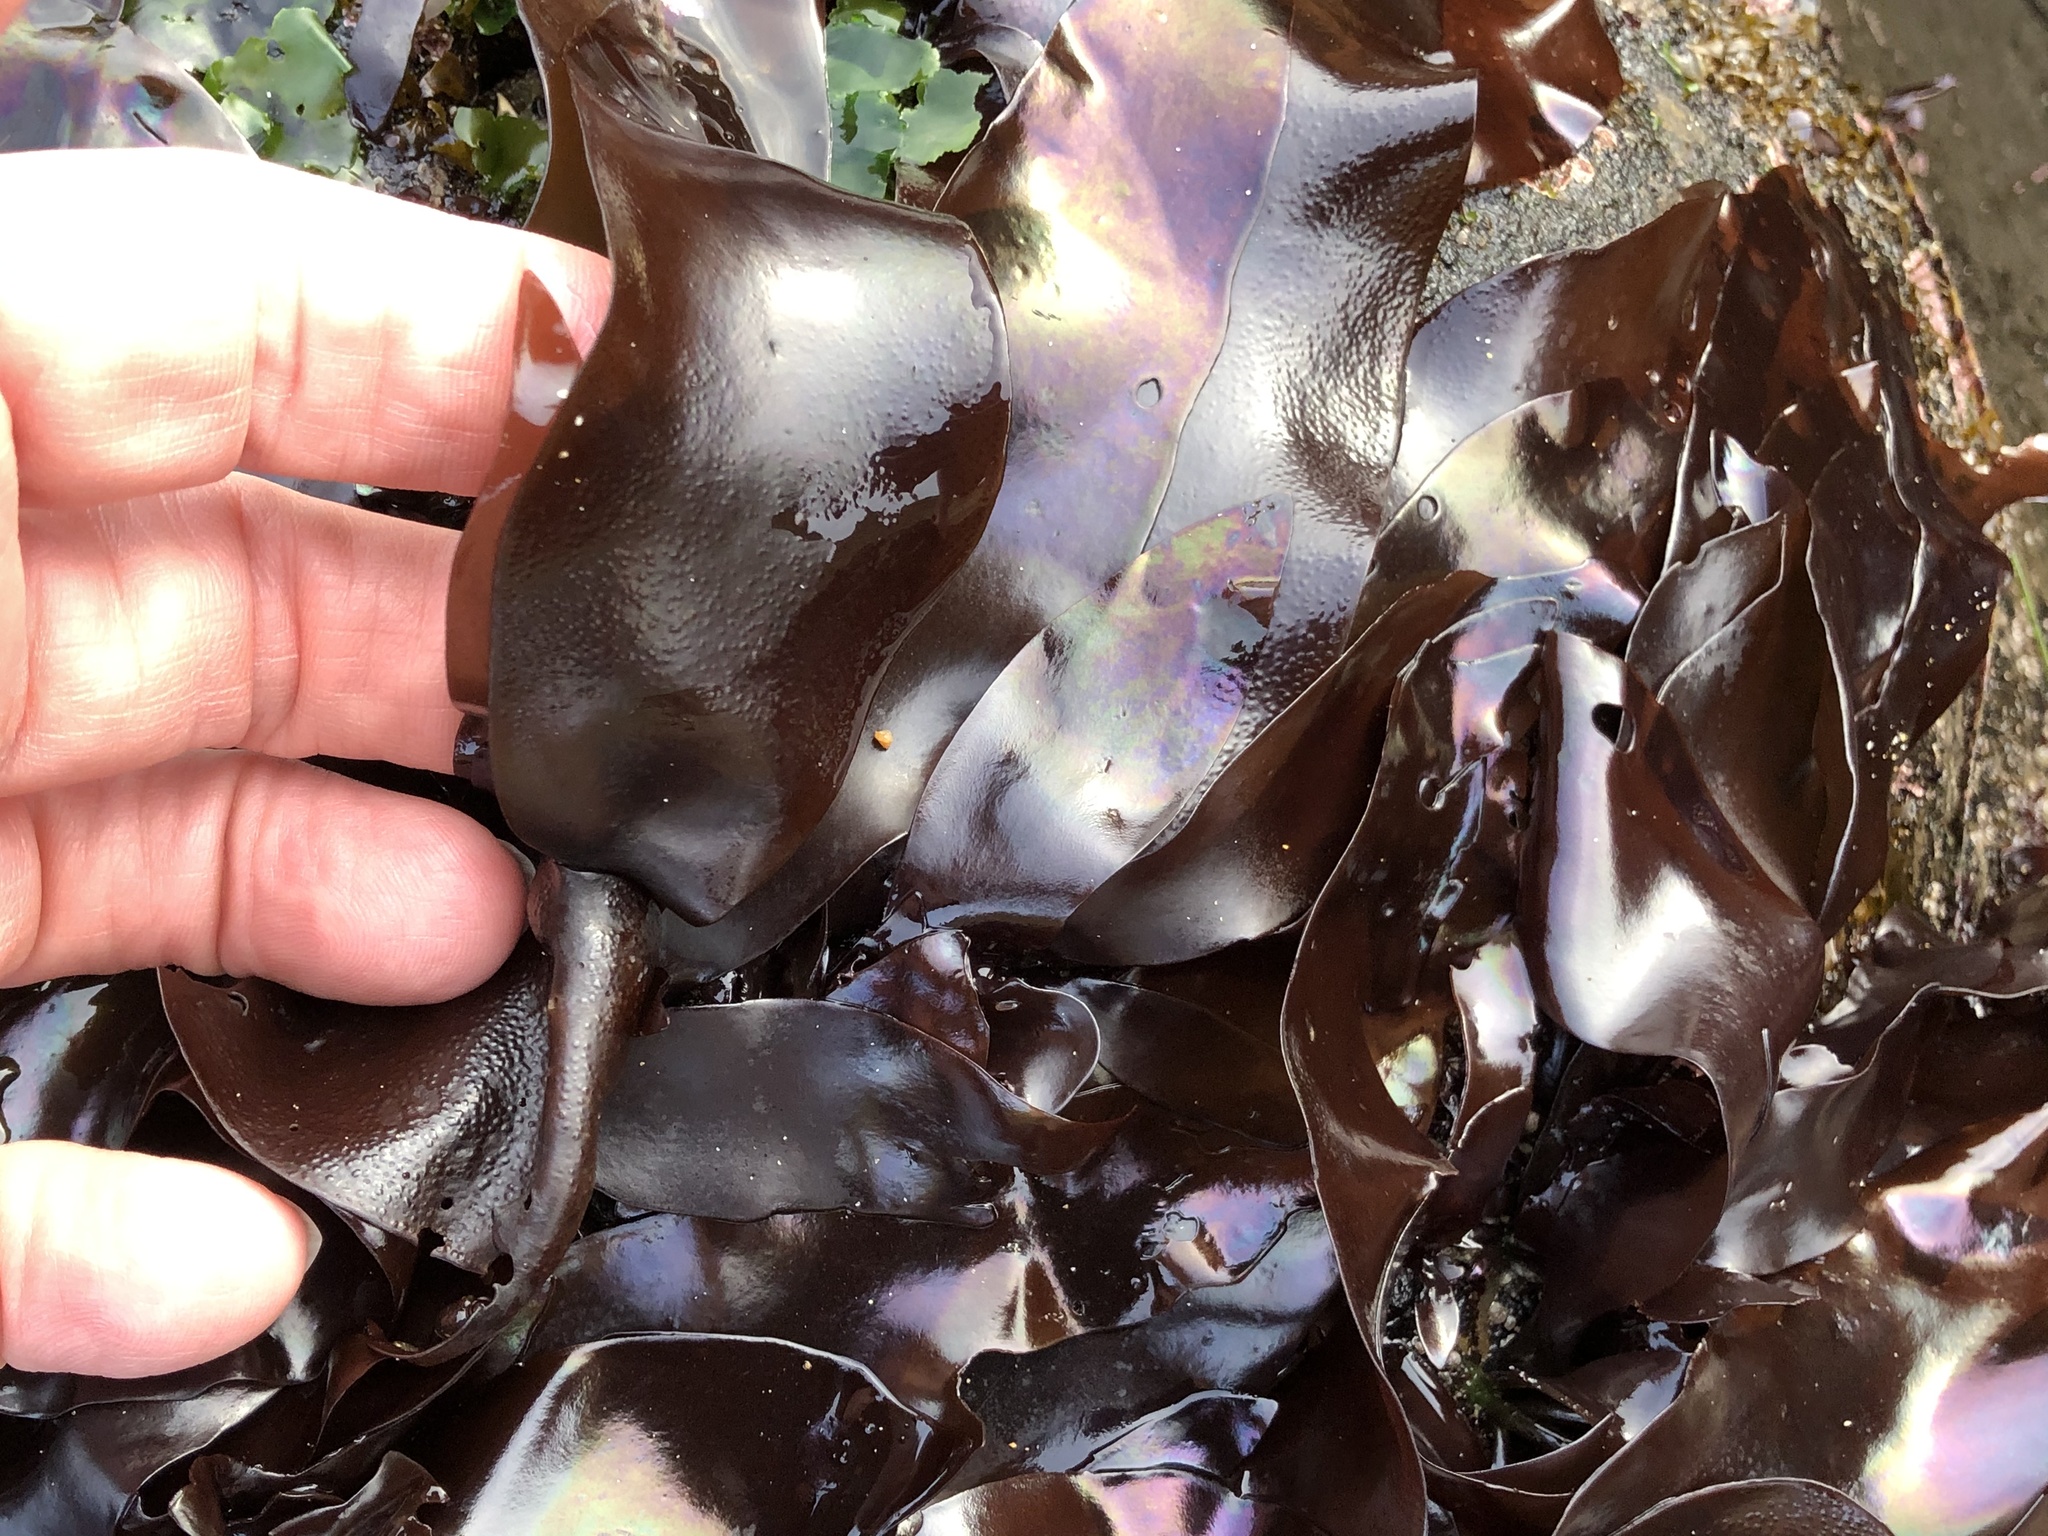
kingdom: Plantae
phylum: Rhodophyta
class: Florideophyceae
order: Gigartinales
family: Gigartinaceae
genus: Mazzaella
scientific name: Mazzaella splendens
